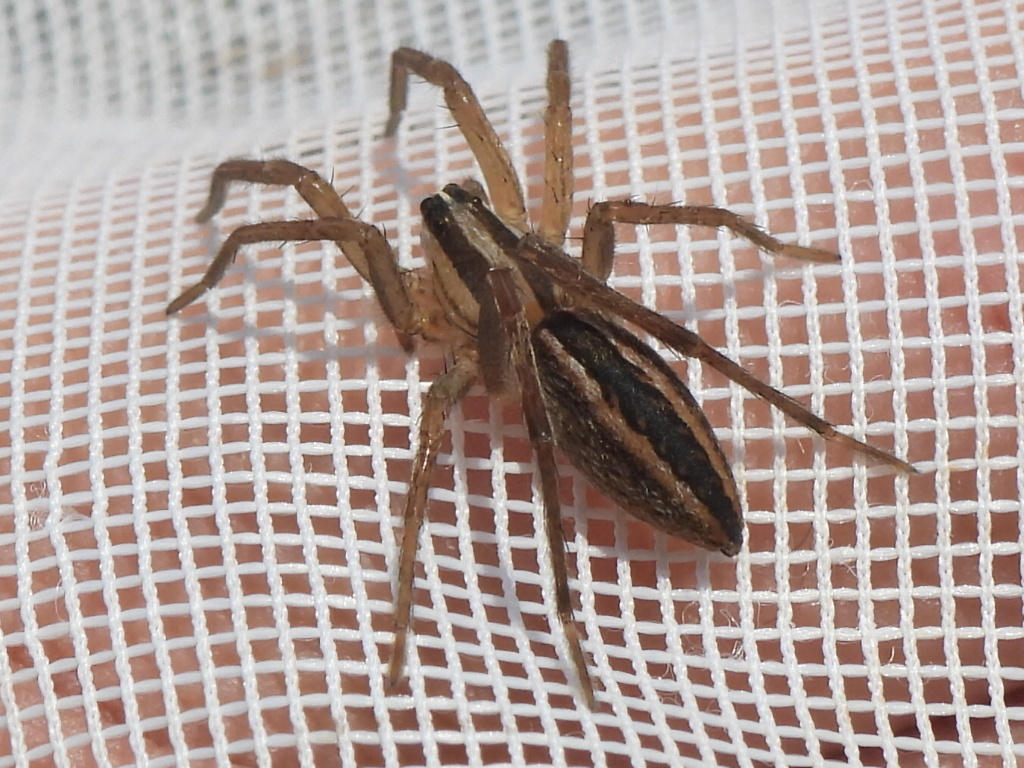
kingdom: Animalia
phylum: Arthropoda
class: Arachnida
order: Araneae
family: Lycosidae
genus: Rabidosa
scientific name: Rabidosa rabida
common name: Rabid wolf spider
